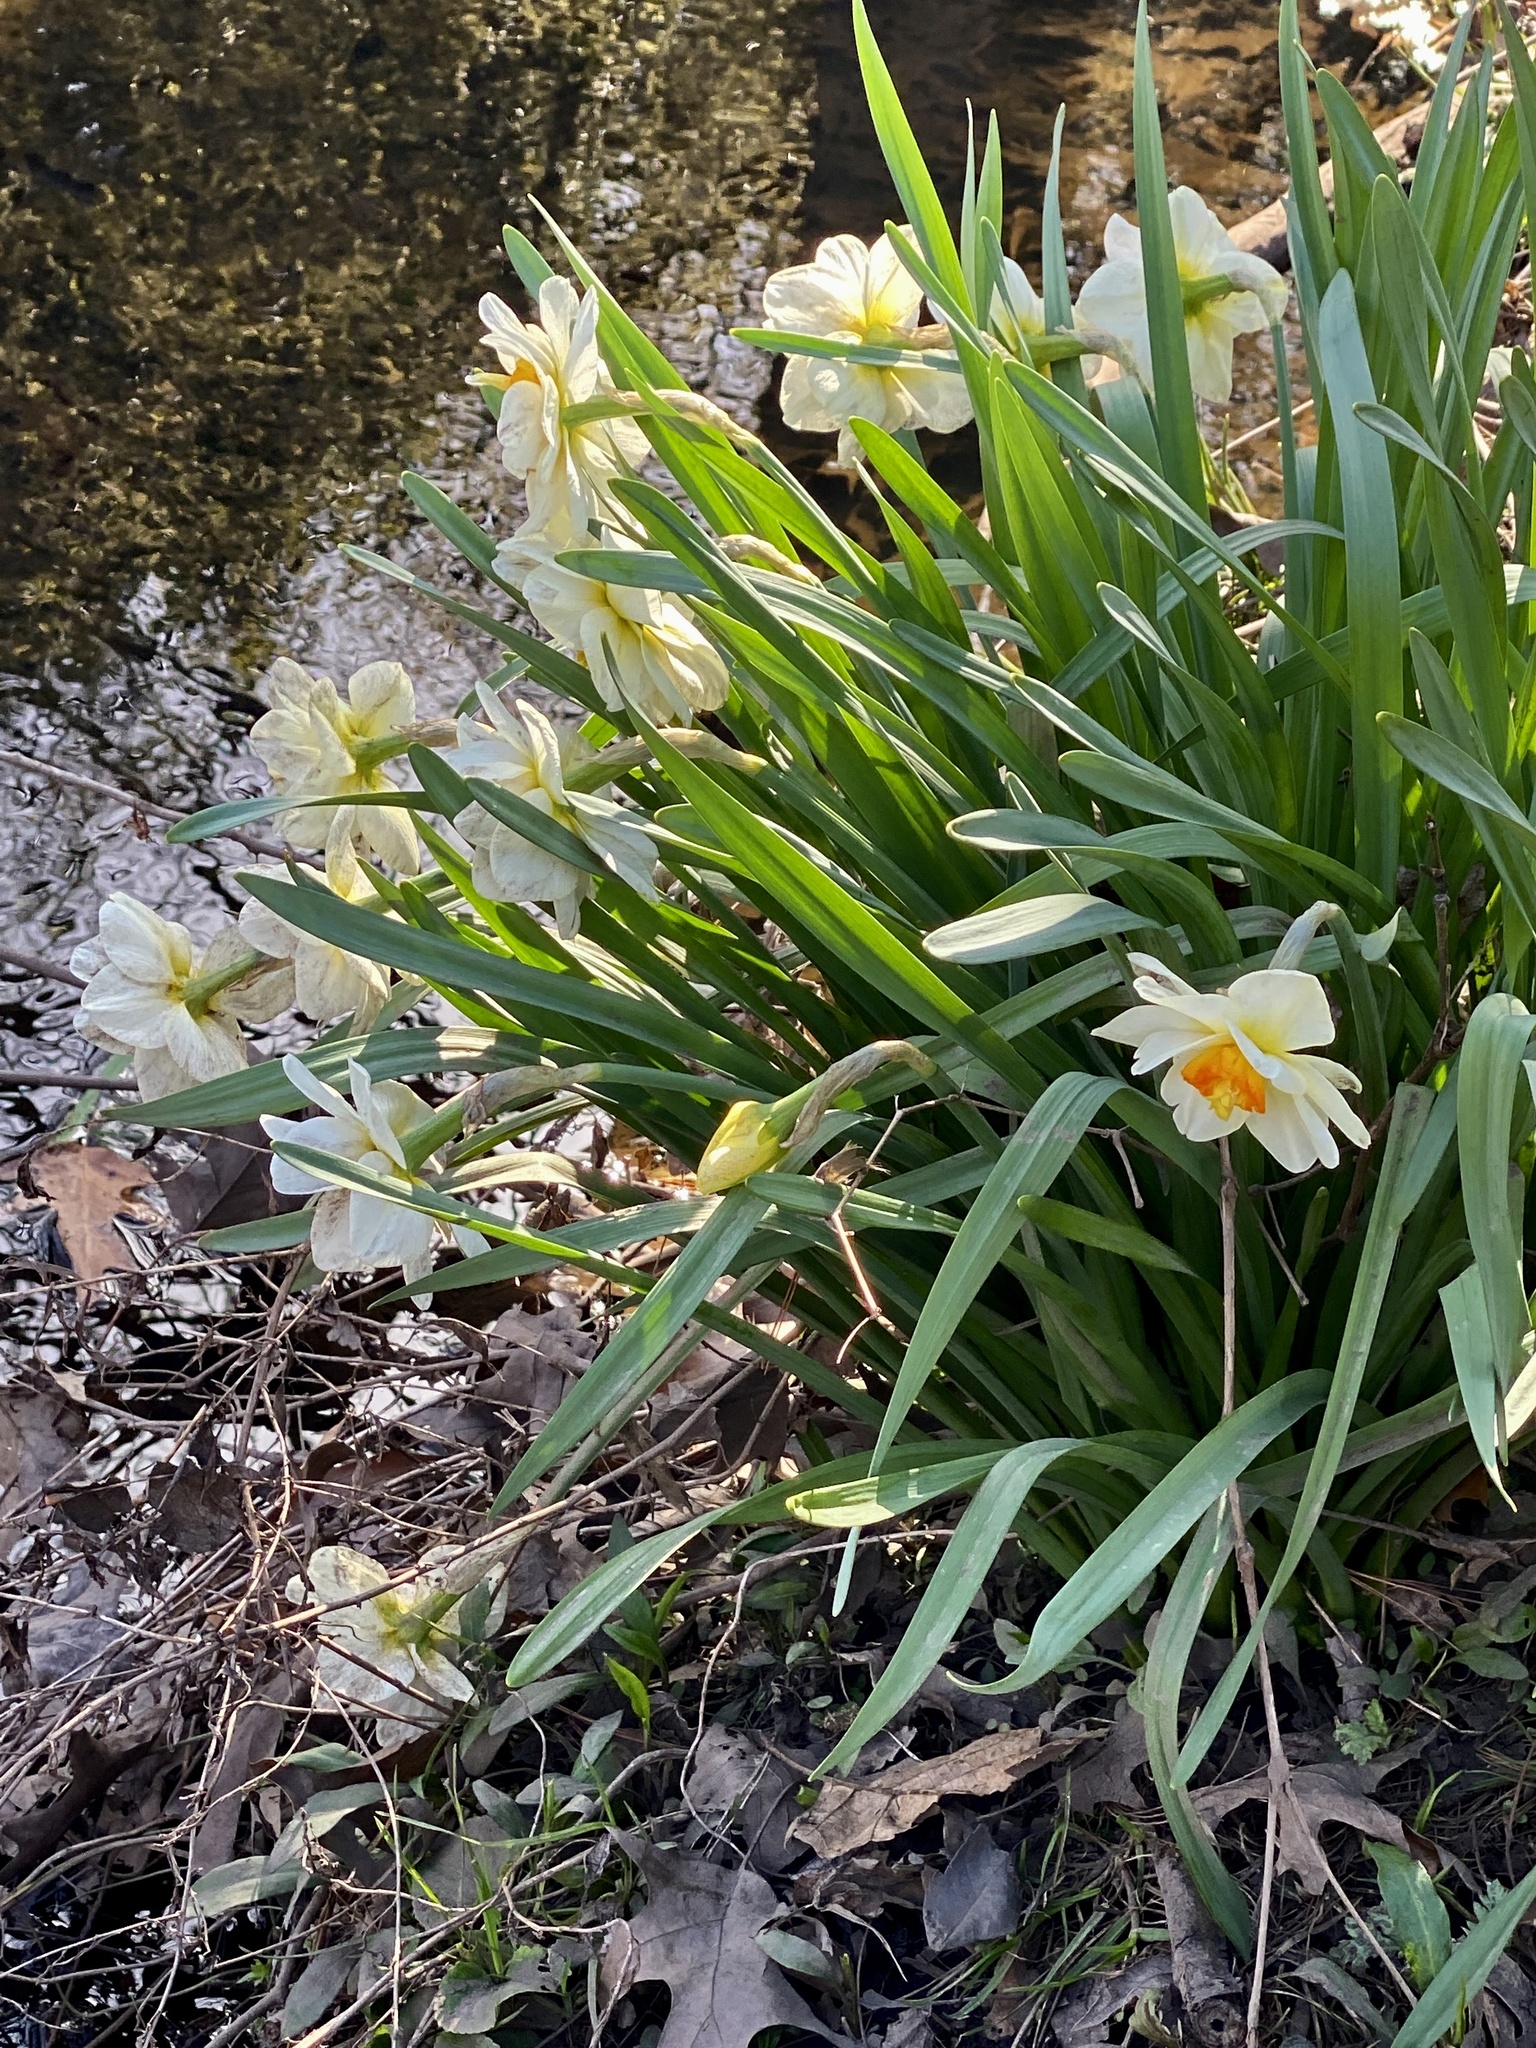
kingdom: Plantae
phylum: Tracheophyta
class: Liliopsida
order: Asparagales
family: Amaryllidaceae
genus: Narcissus
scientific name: Narcissus
